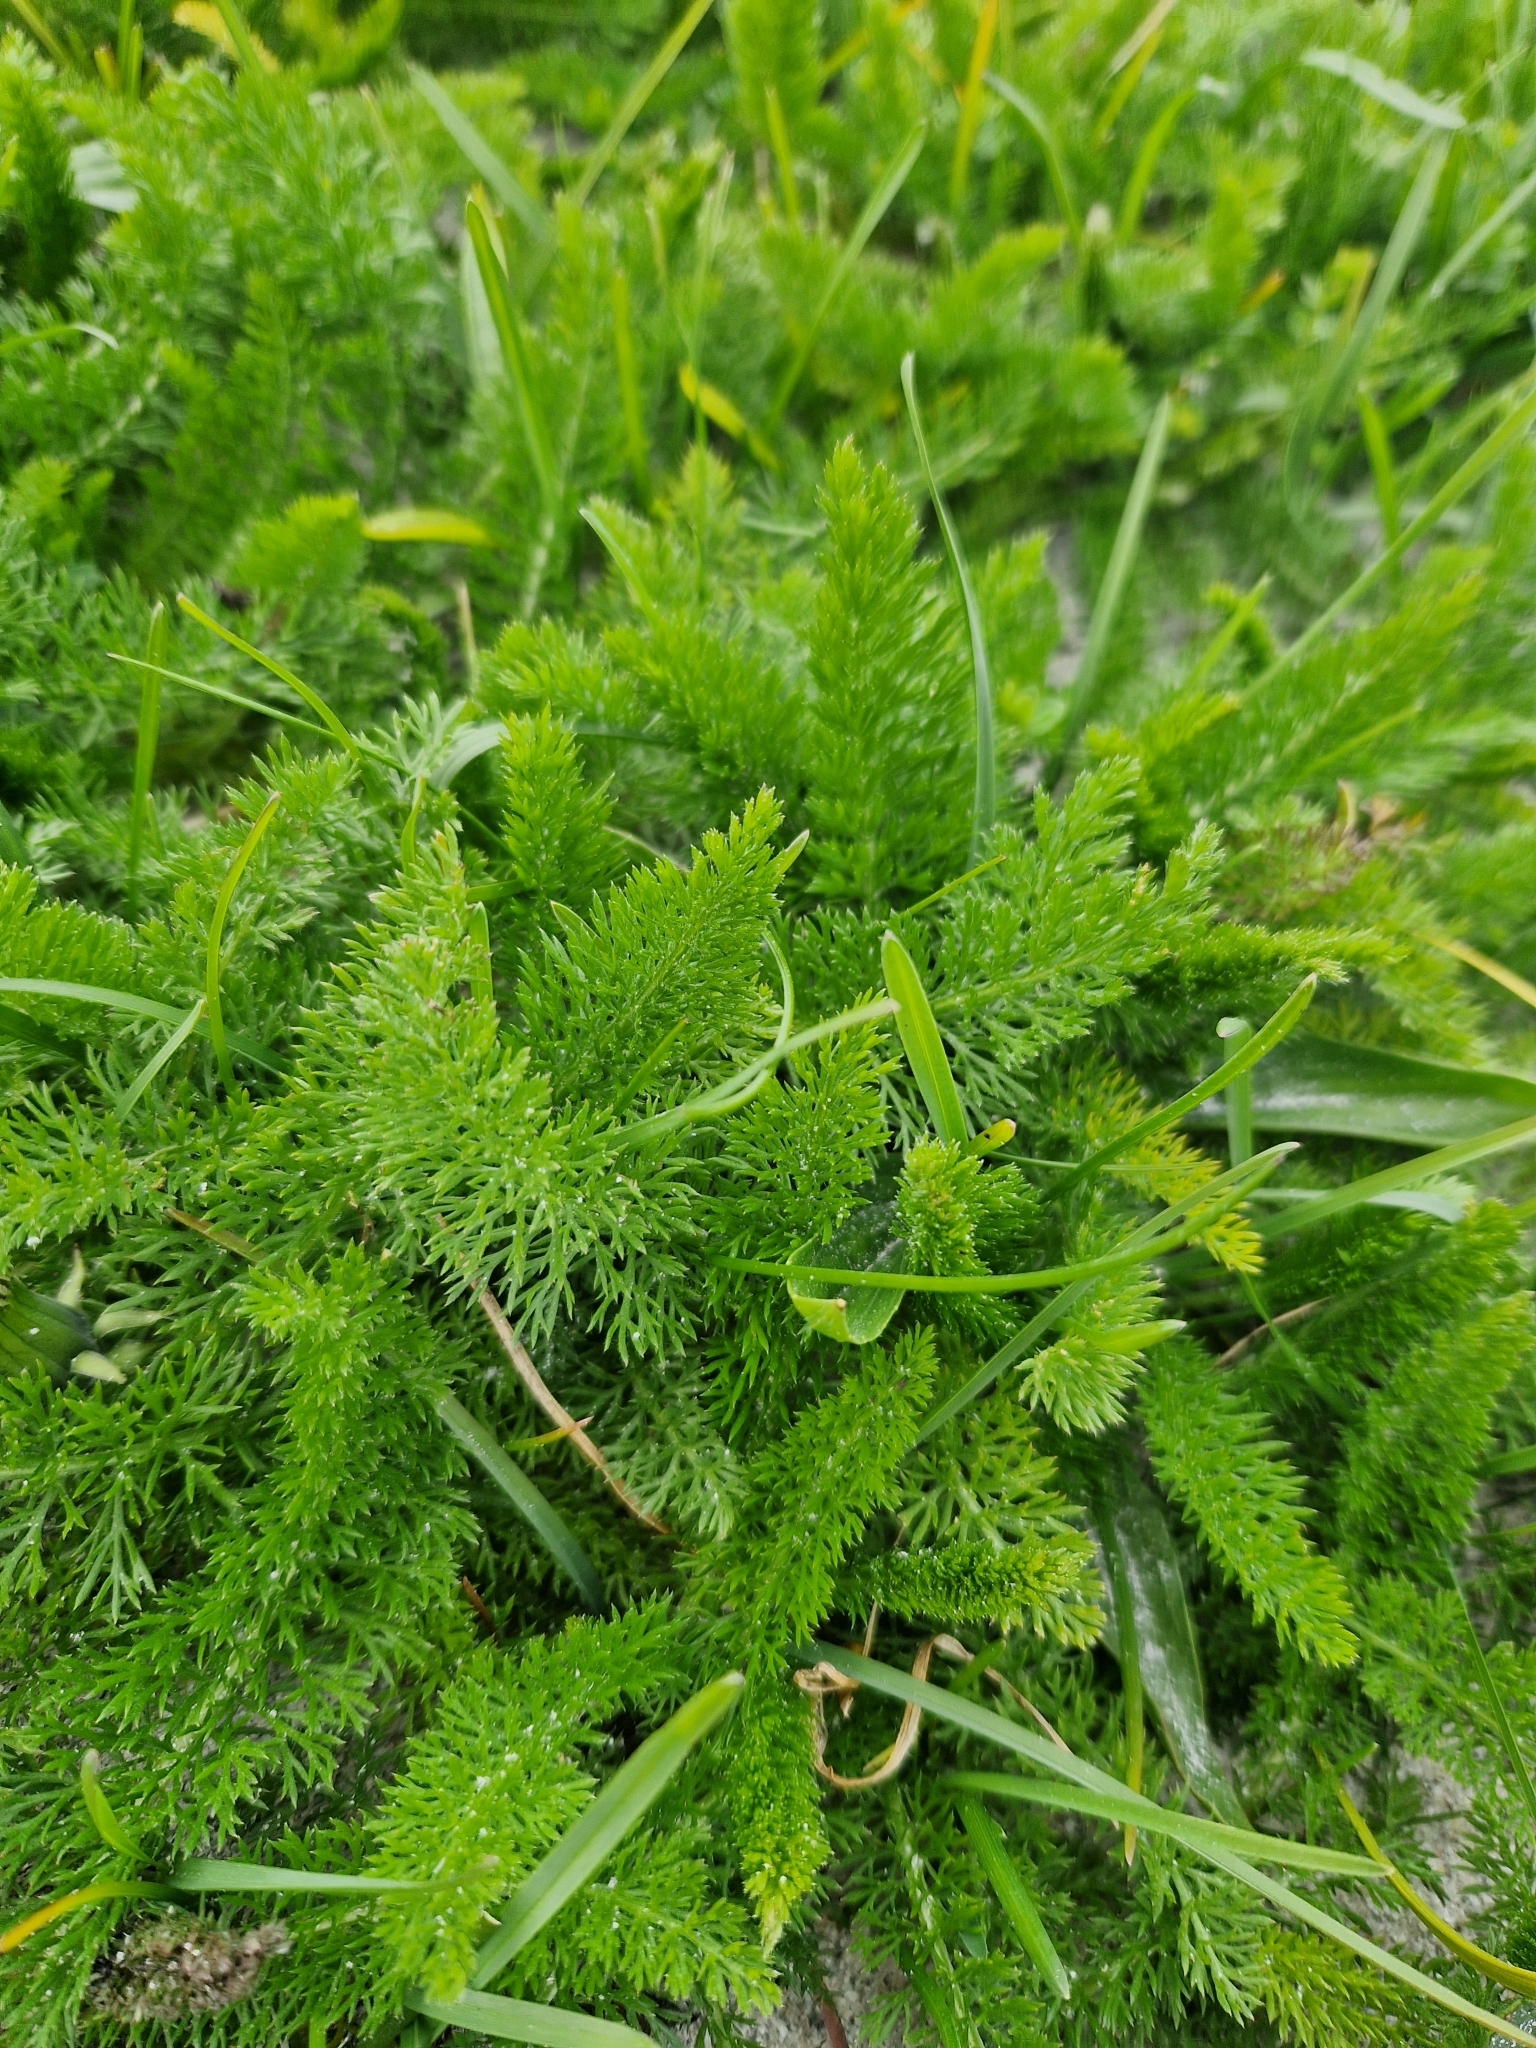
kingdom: Plantae
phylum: Tracheophyta
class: Magnoliopsida
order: Asterales
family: Asteraceae
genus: Achillea
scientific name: Achillea millefolium
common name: Yarrow
